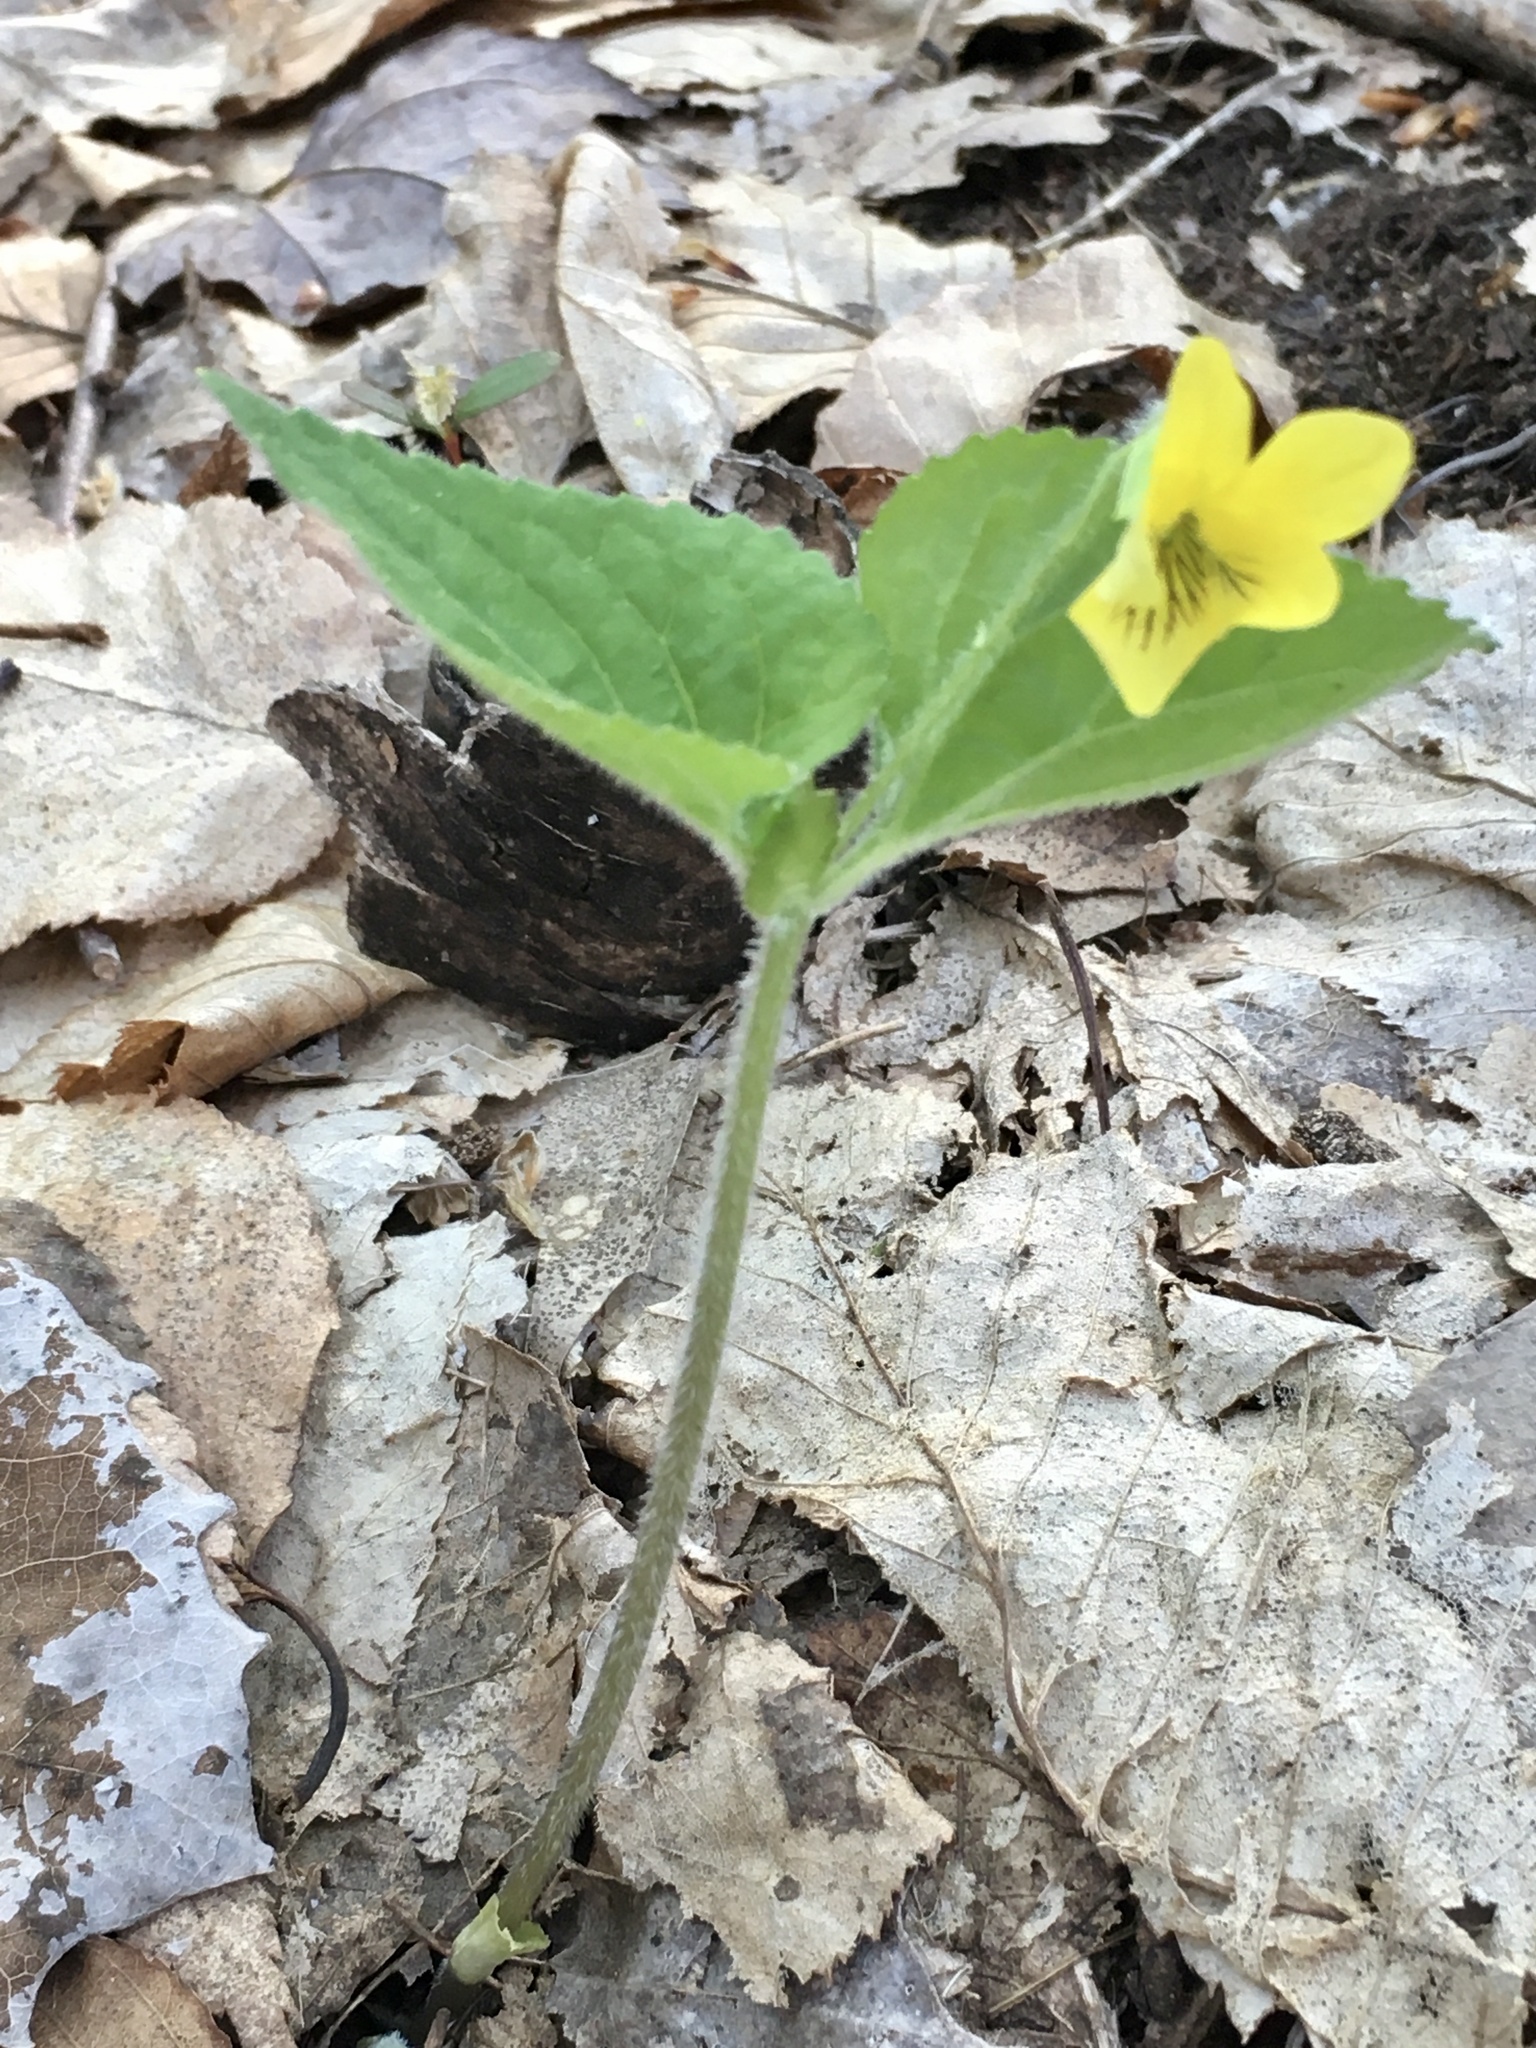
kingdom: Plantae
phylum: Tracheophyta
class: Magnoliopsida
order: Malpighiales
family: Violaceae
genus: Viola
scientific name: Viola pubescens
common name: Yellow forest violet
